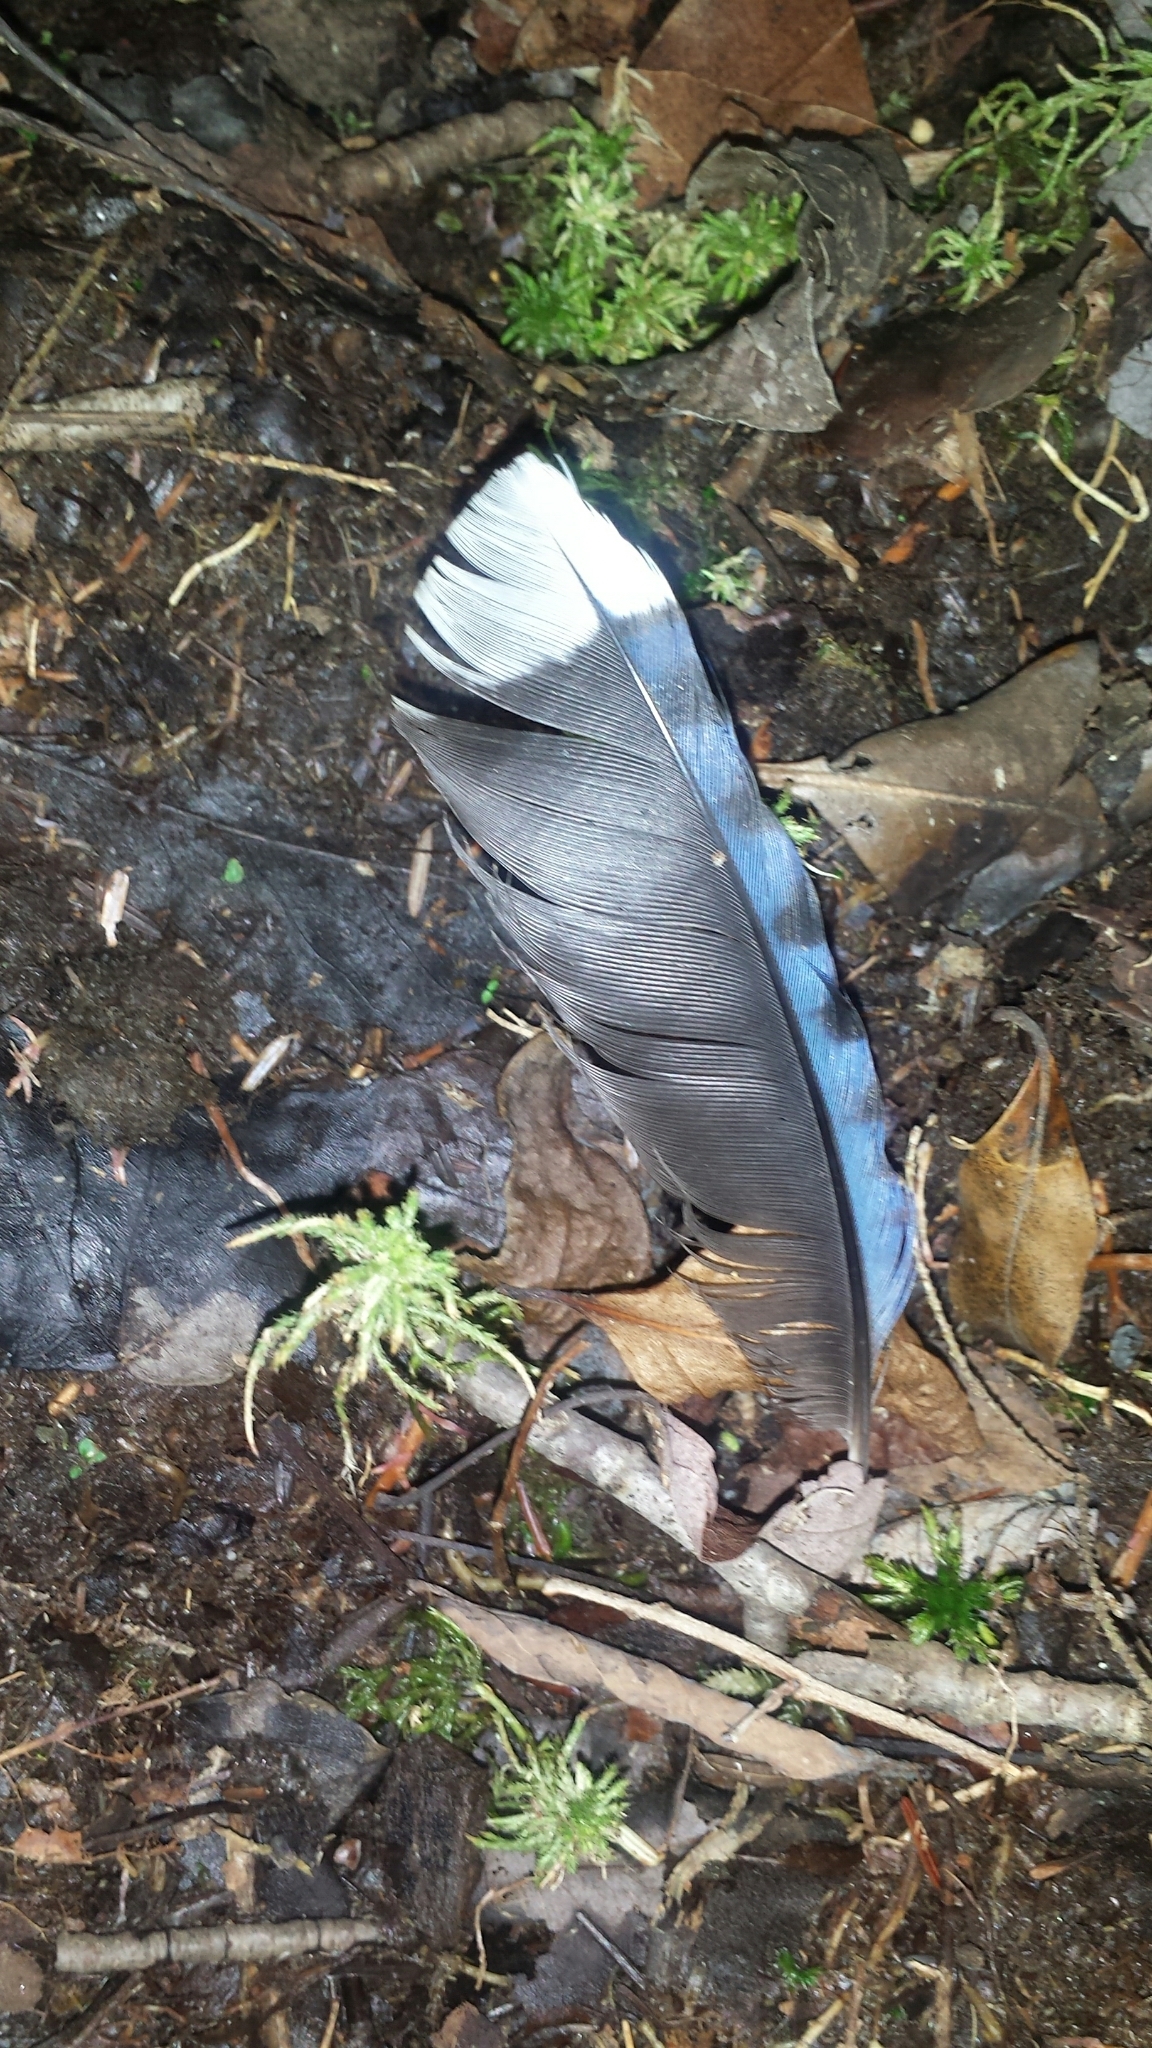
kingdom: Animalia
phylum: Chordata
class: Aves
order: Passeriformes
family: Corvidae
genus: Cyanocitta
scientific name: Cyanocitta cristata
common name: Blue jay
